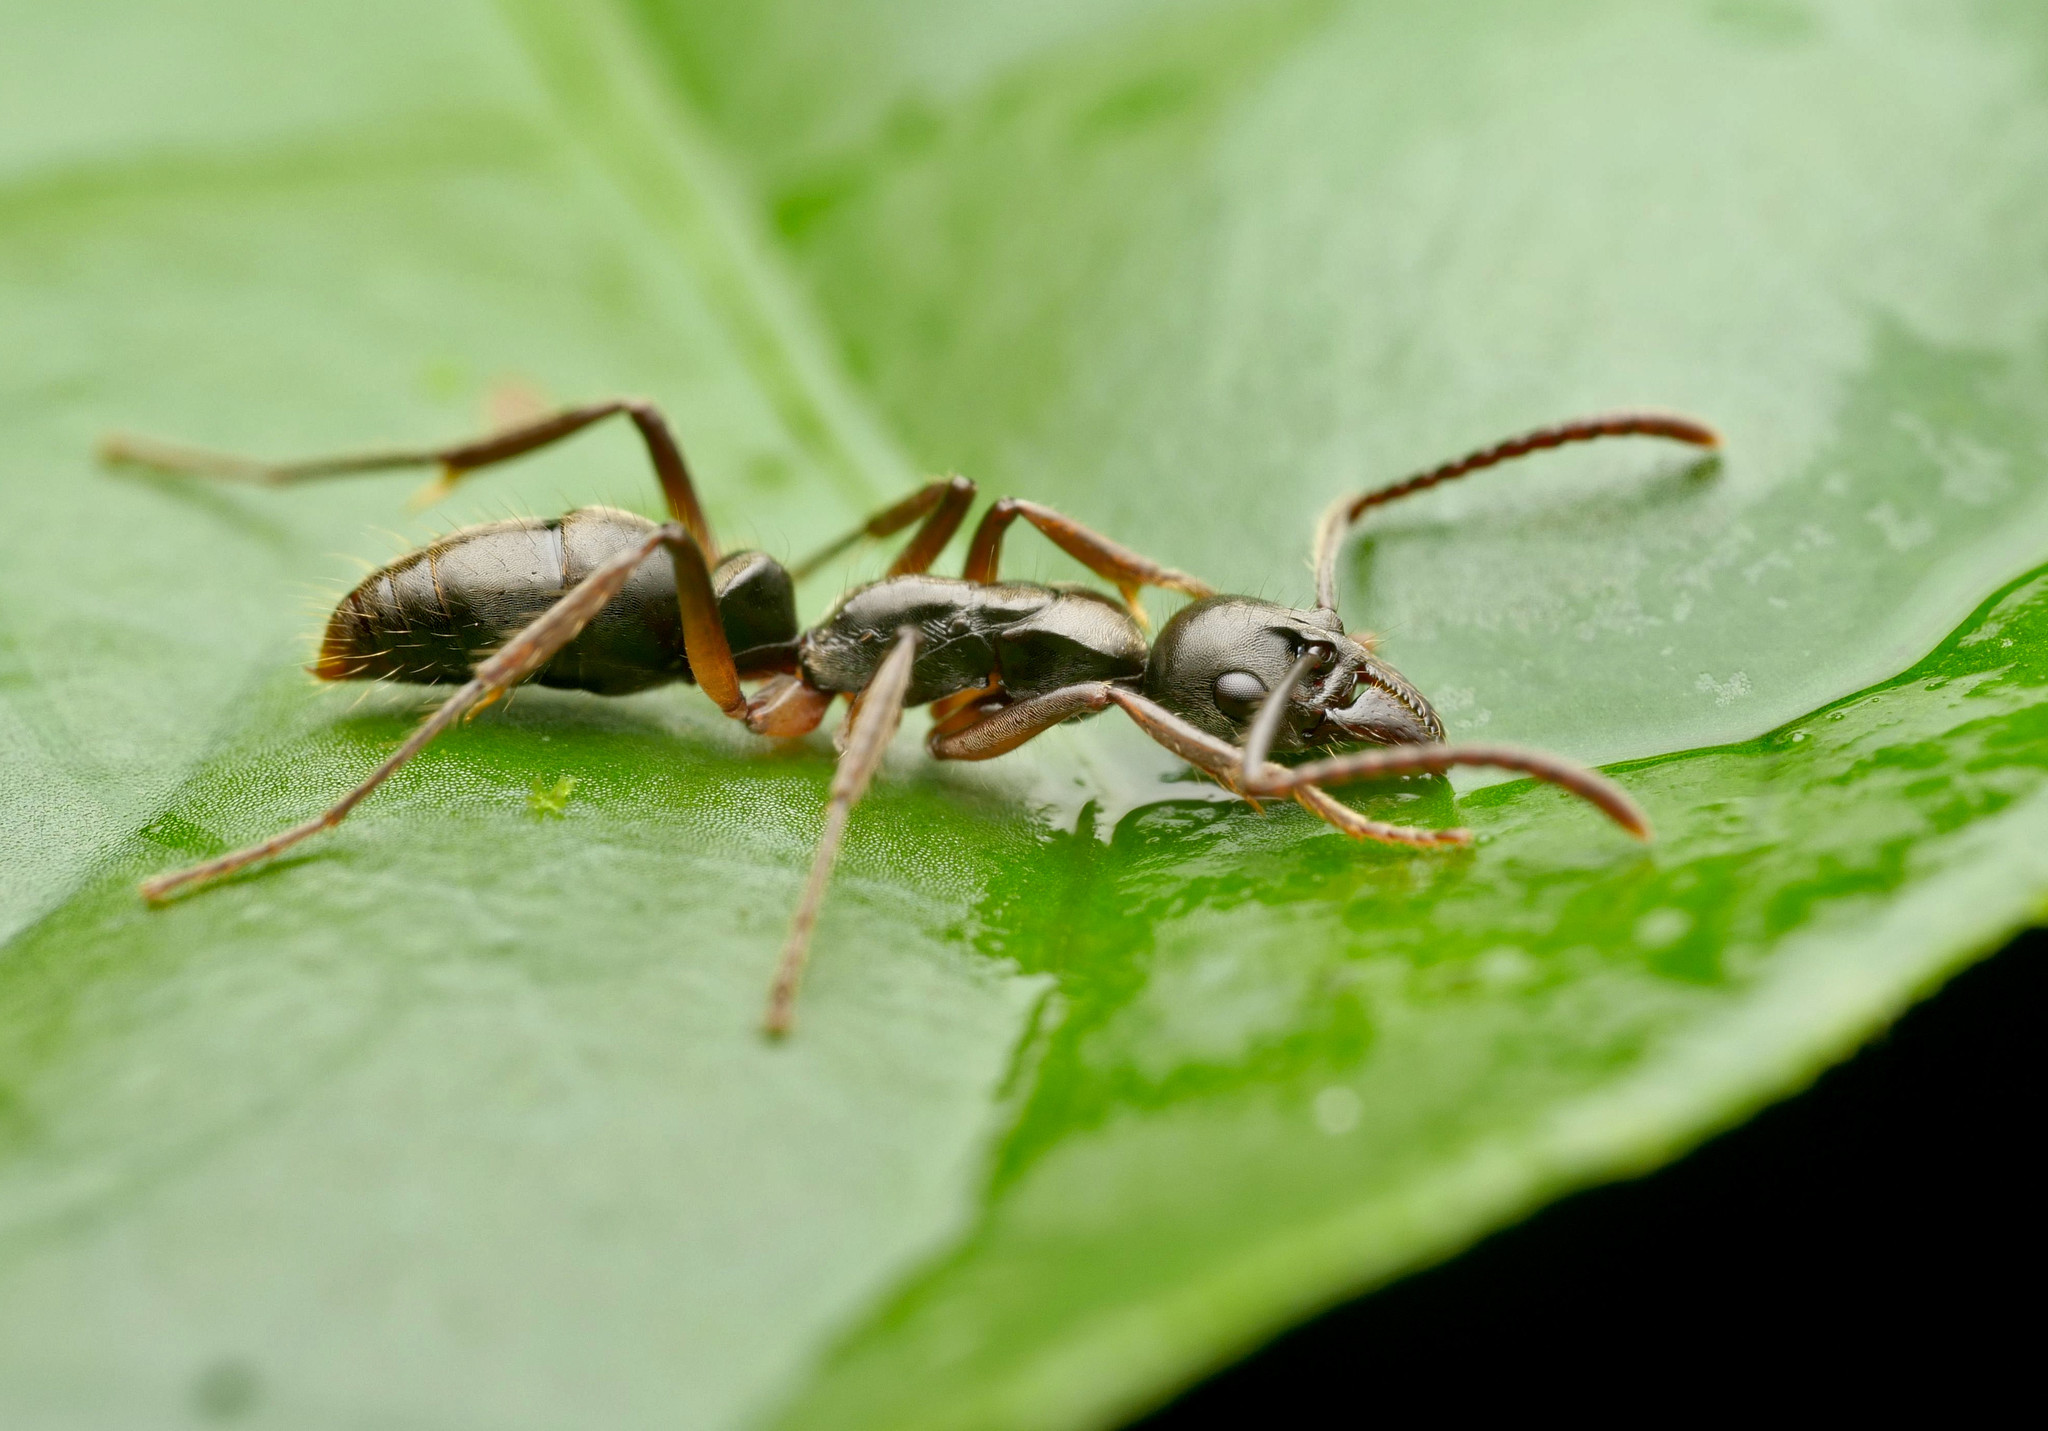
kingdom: Animalia
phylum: Arthropoda
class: Insecta
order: Hymenoptera
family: Formicidae
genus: Neoponera
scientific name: Neoponera antecurvata
